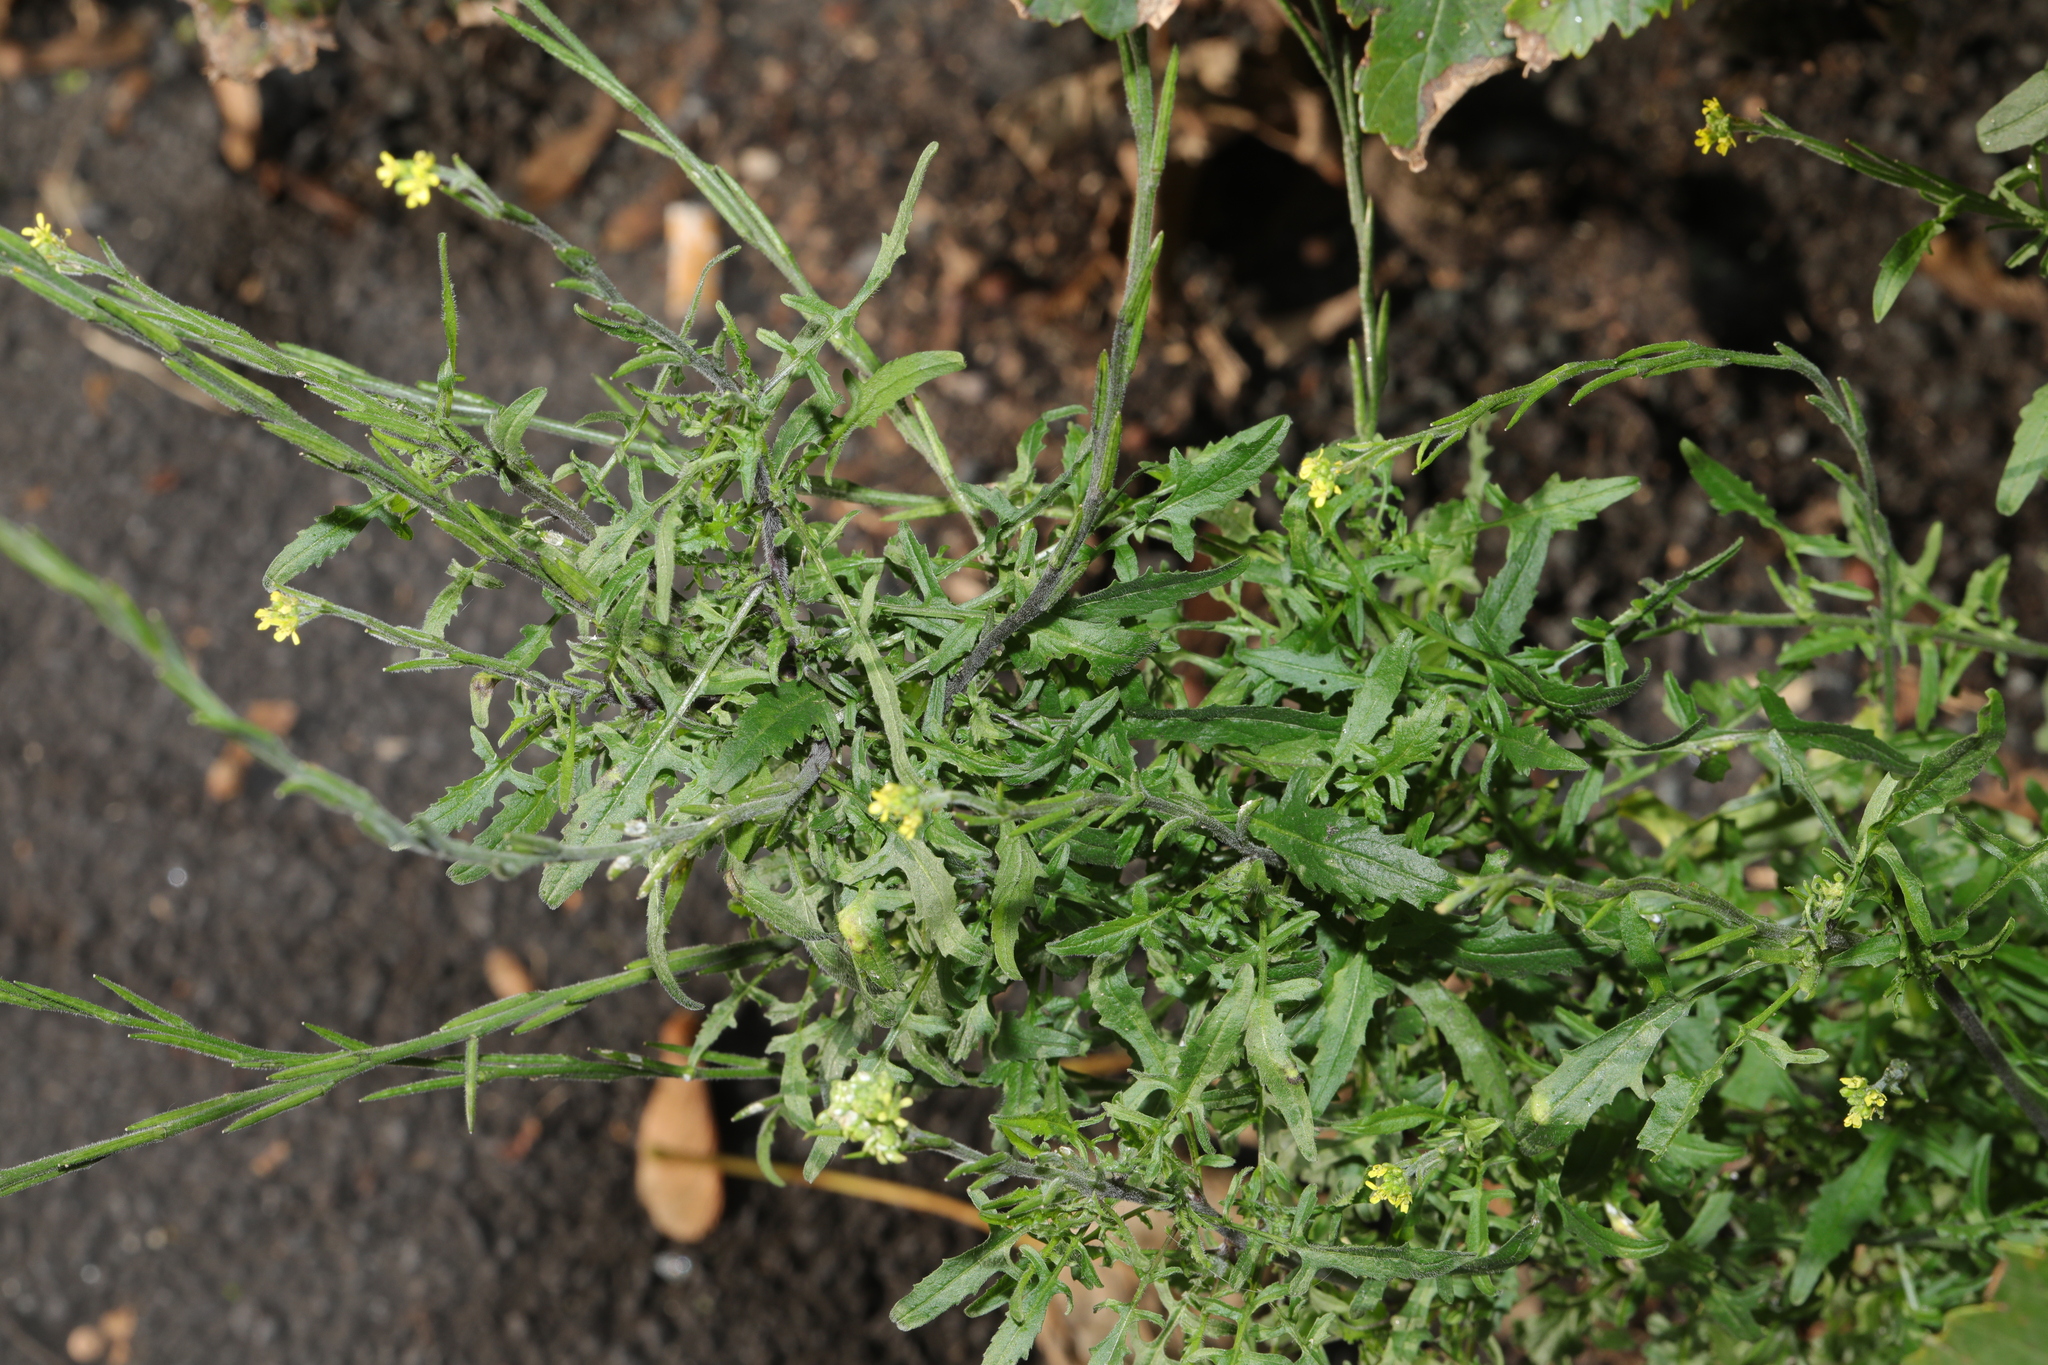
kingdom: Plantae
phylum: Tracheophyta
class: Magnoliopsida
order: Brassicales
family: Brassicaceae
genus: Sisymbrium
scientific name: Sisymbrium officinale
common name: Hedge mustard
